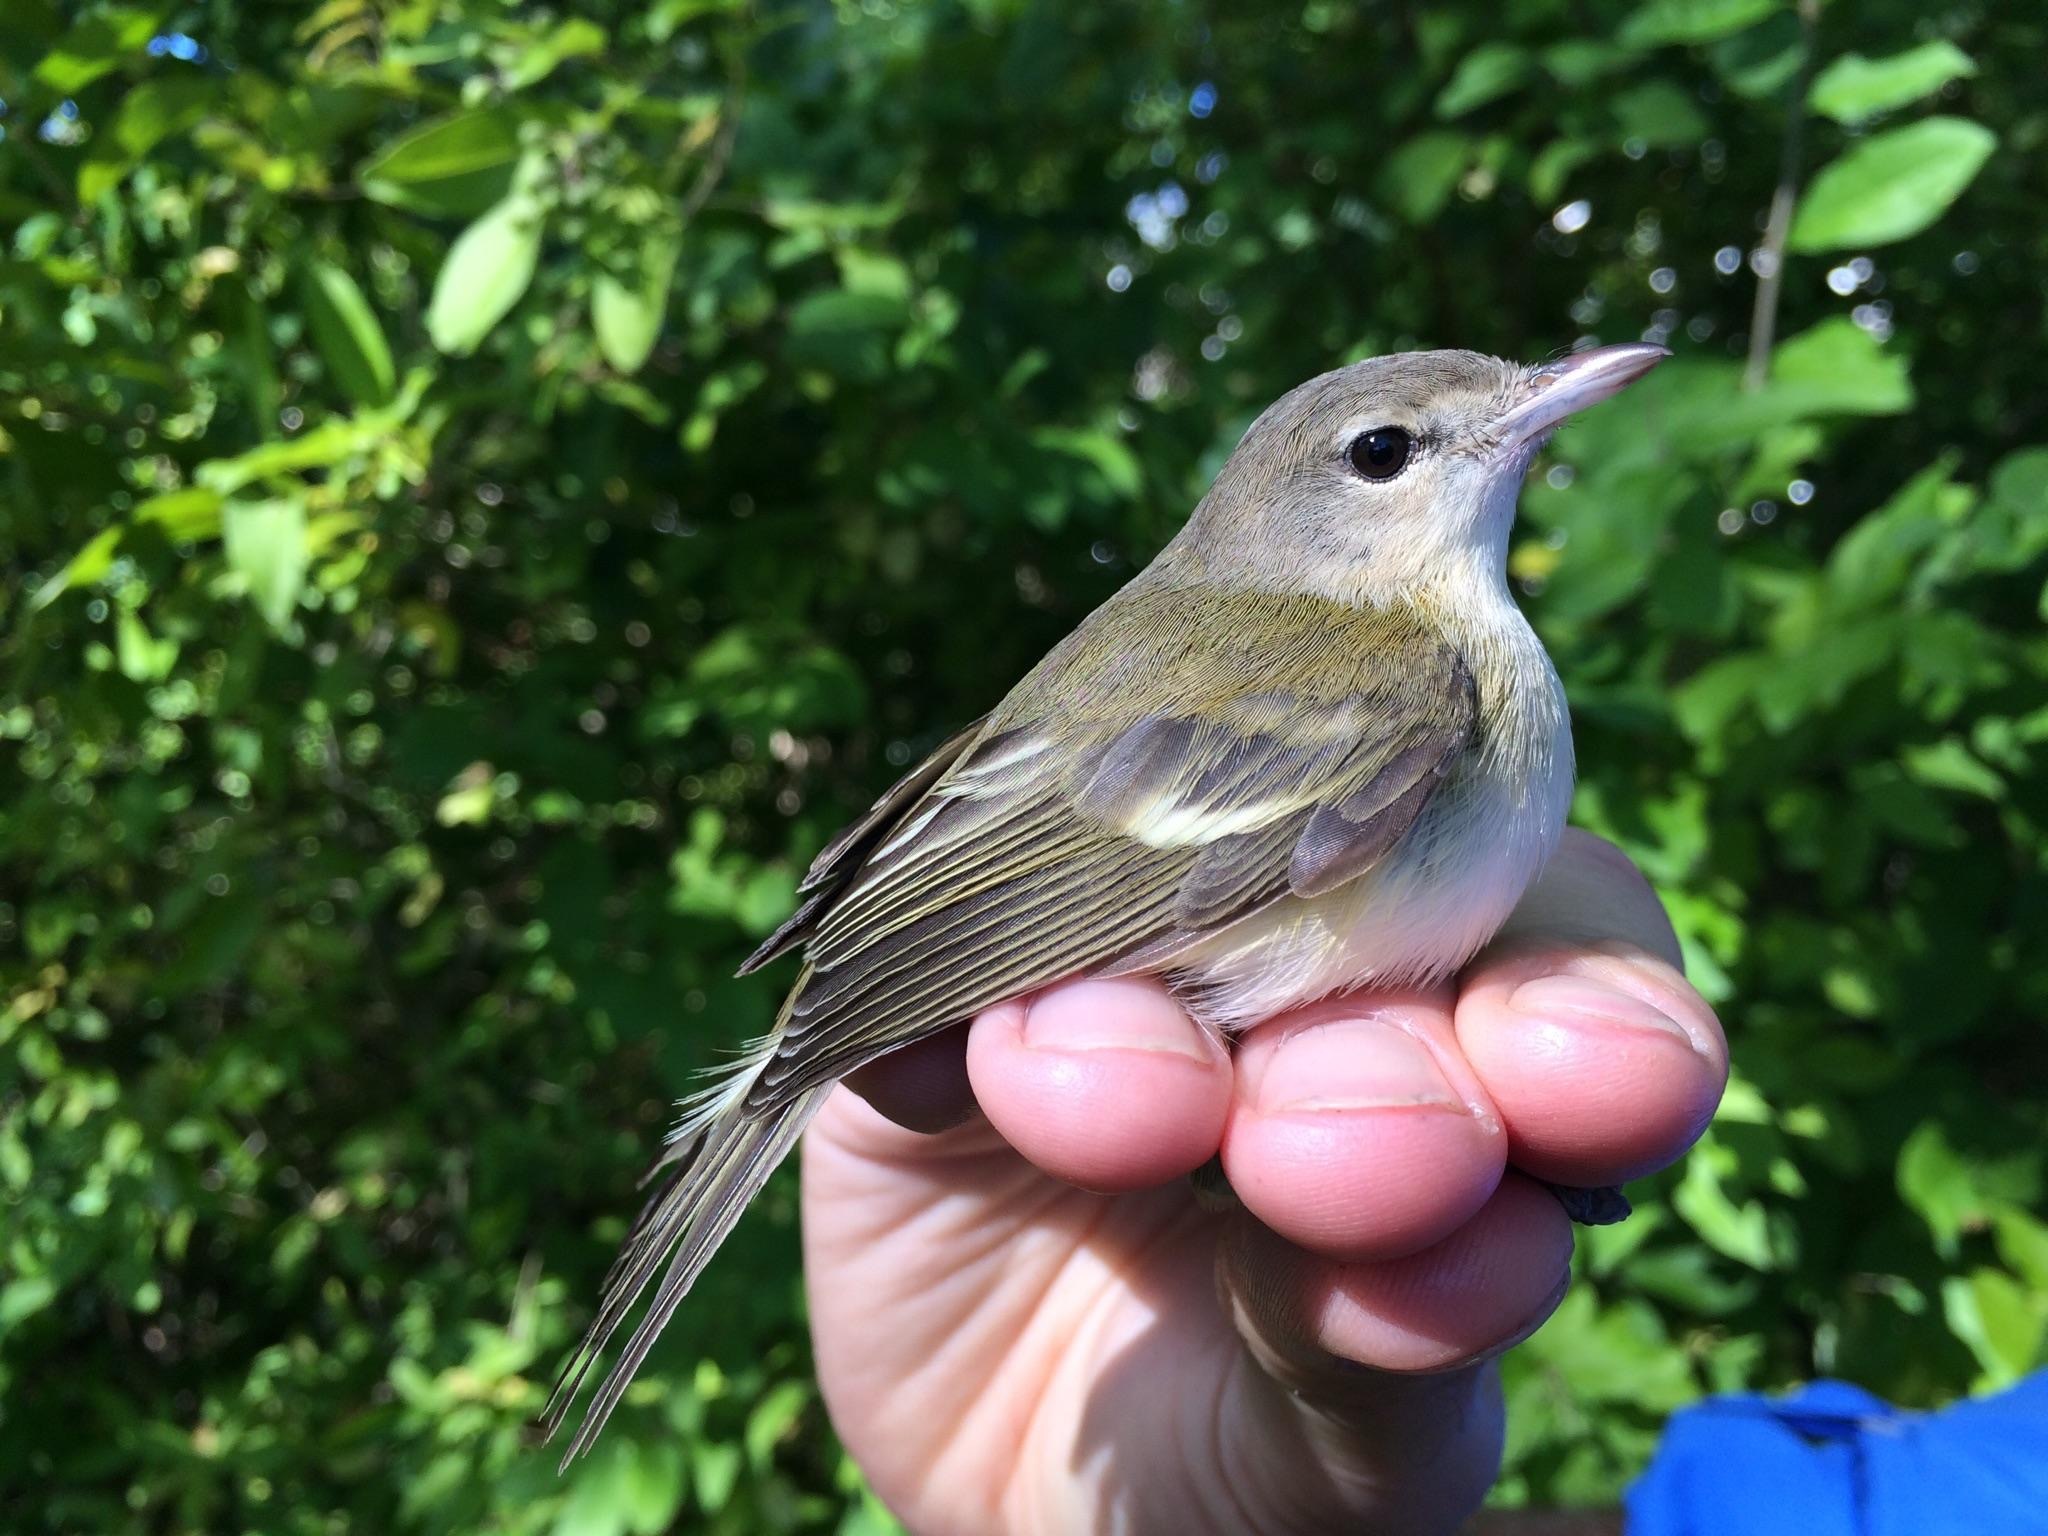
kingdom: Animalia
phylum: Chordata
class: Aves
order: Passeriformes
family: Vireonidae
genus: Vireo
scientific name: Vireo bellii
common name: Bell's vireo
